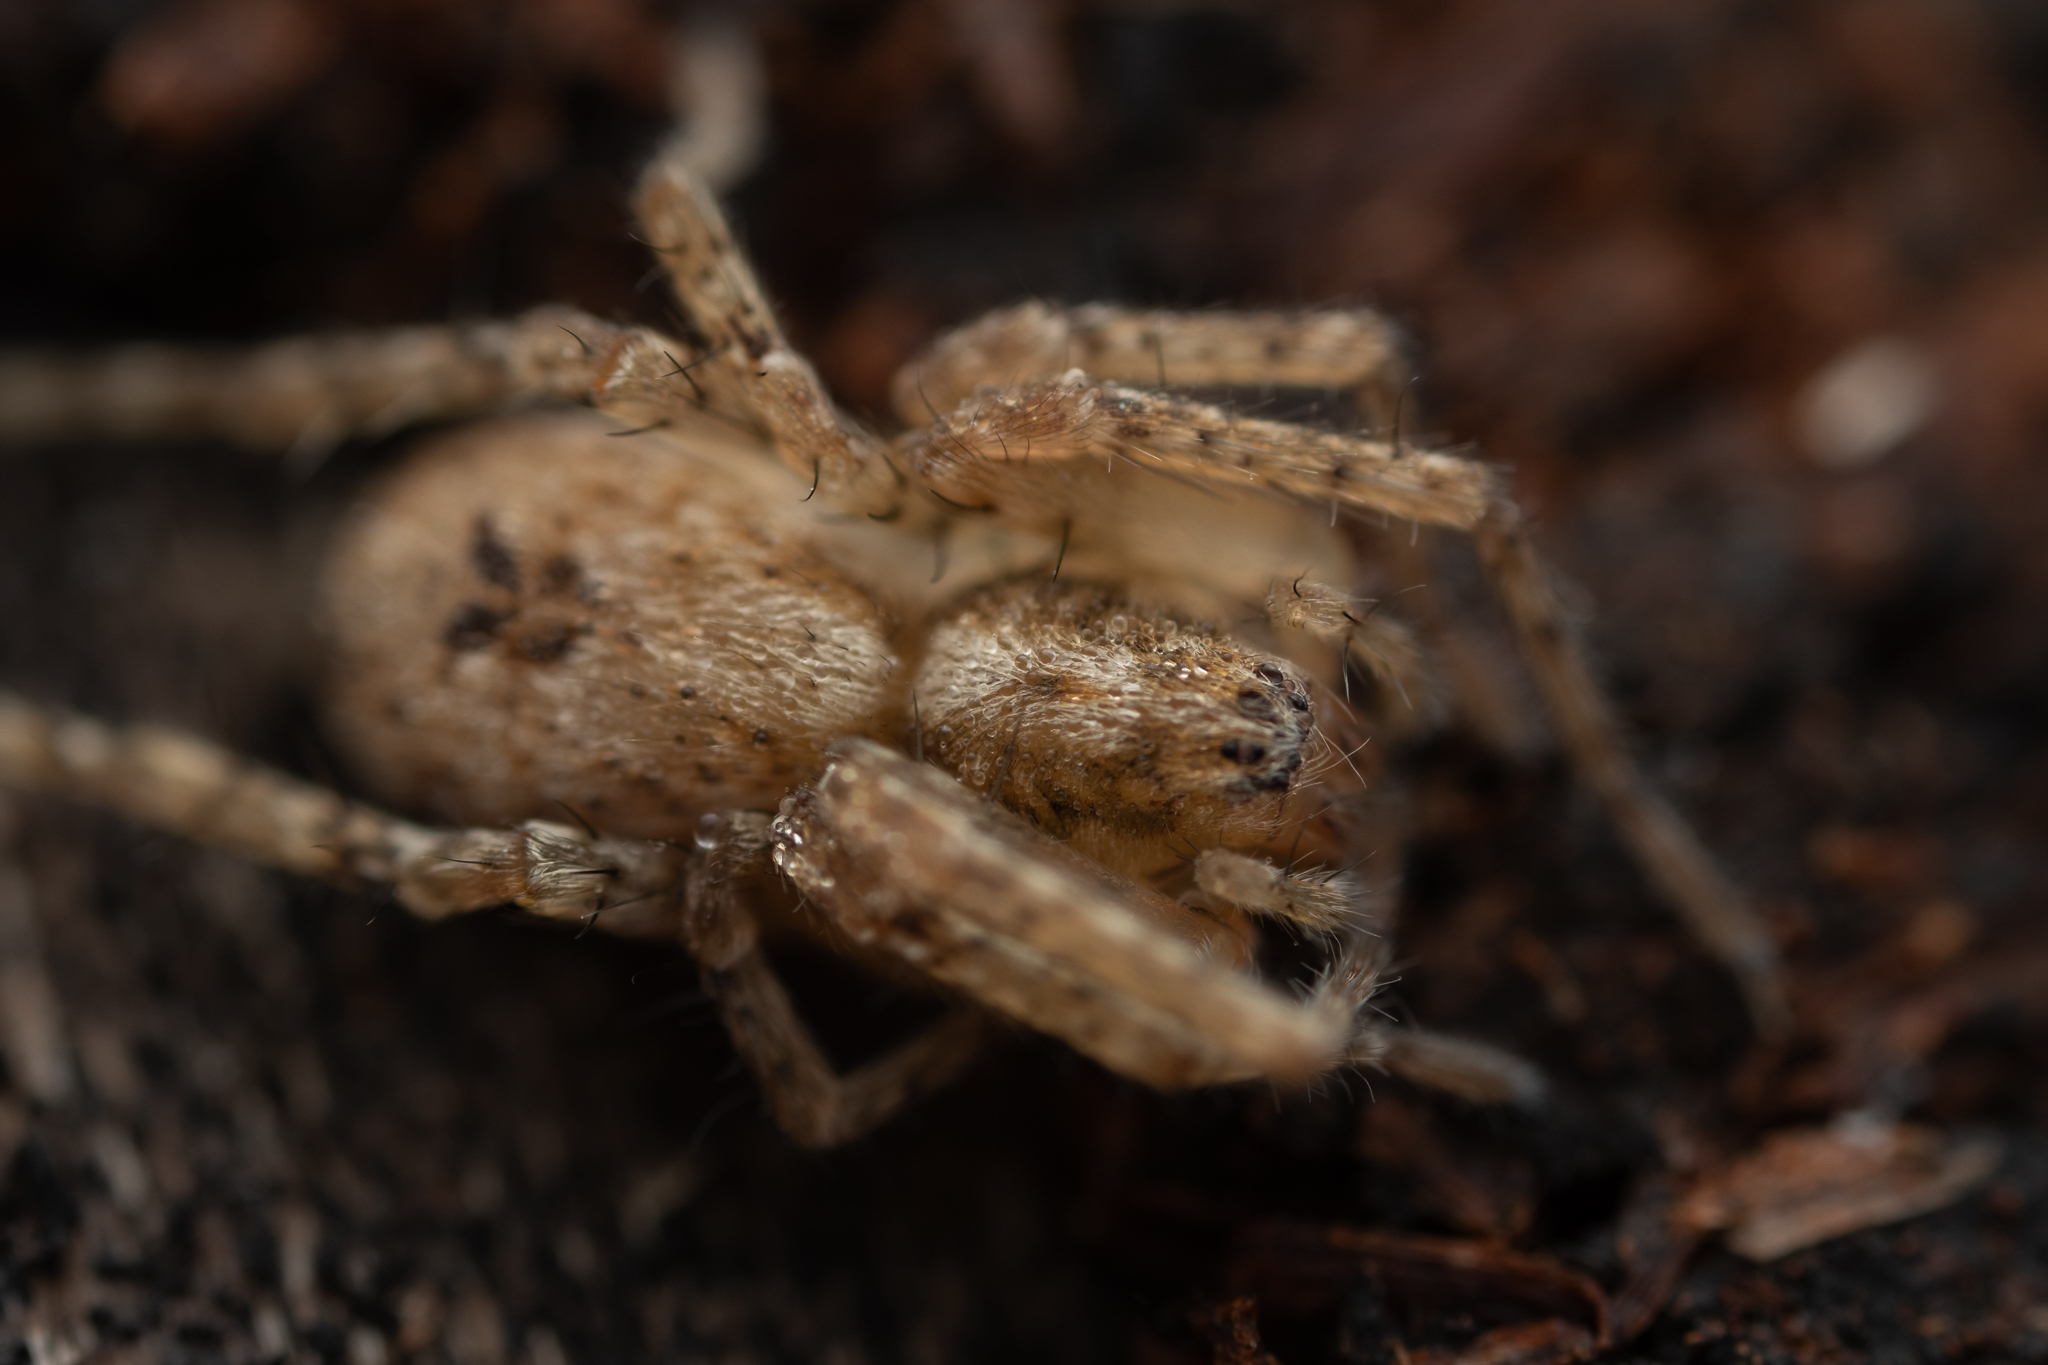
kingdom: Animalia
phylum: Arthropoda
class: Arachnida
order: Araneae
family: Anyphaenidae
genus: Anyphaena
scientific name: Anyphaena accentuata
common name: Buzzing spider
